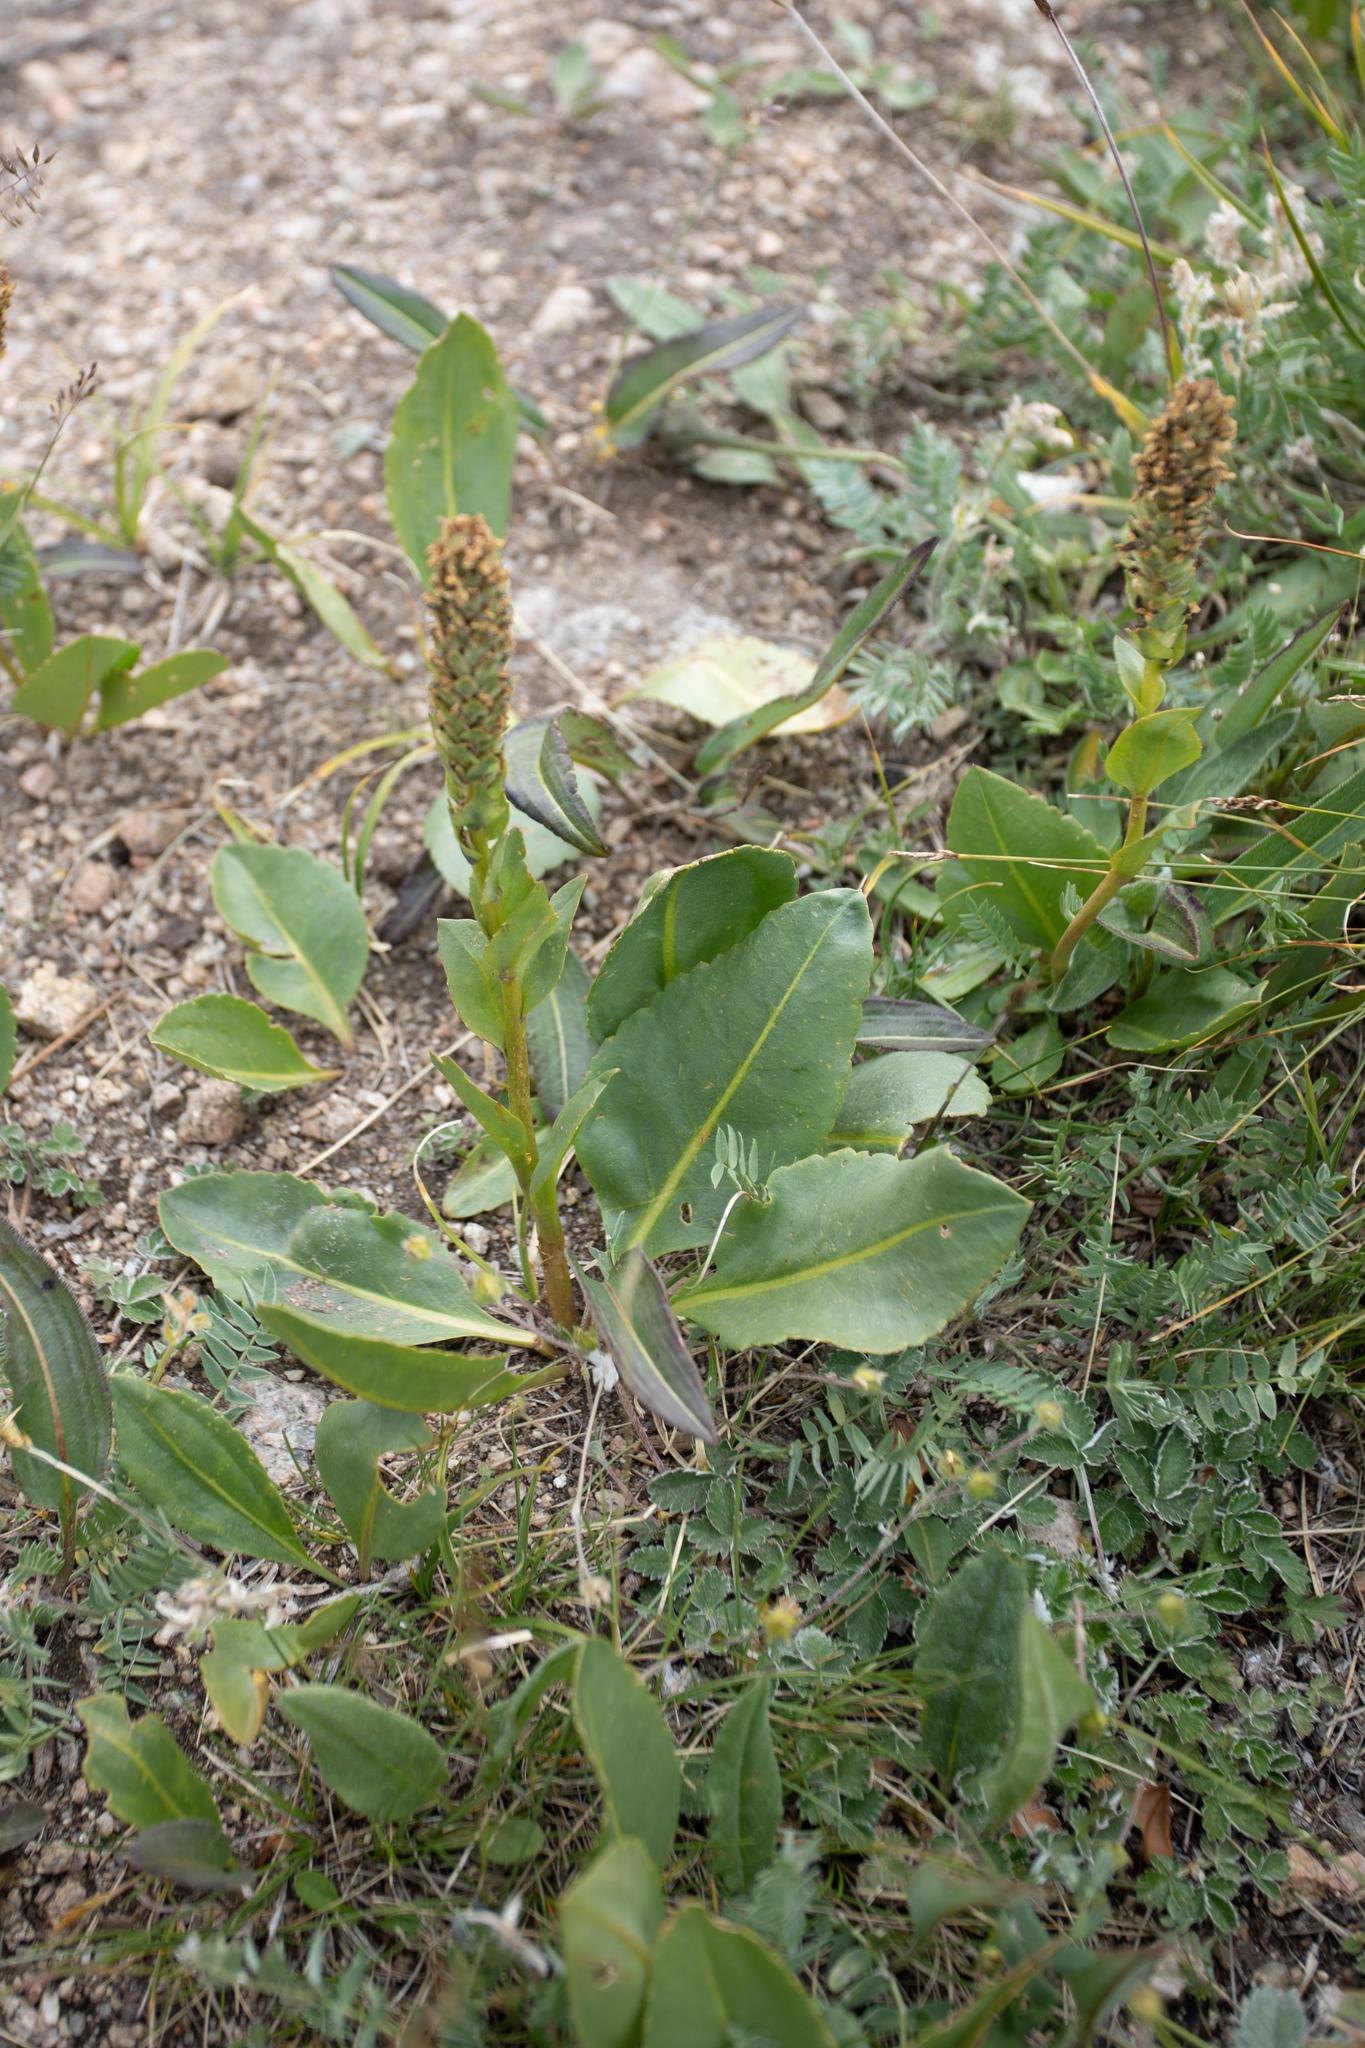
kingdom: Plantae
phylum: Tracheophyta
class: Magnoliopsida
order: Lamiales
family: Plantaginaceae
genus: Lagotis
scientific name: Lagotis integrifolia
